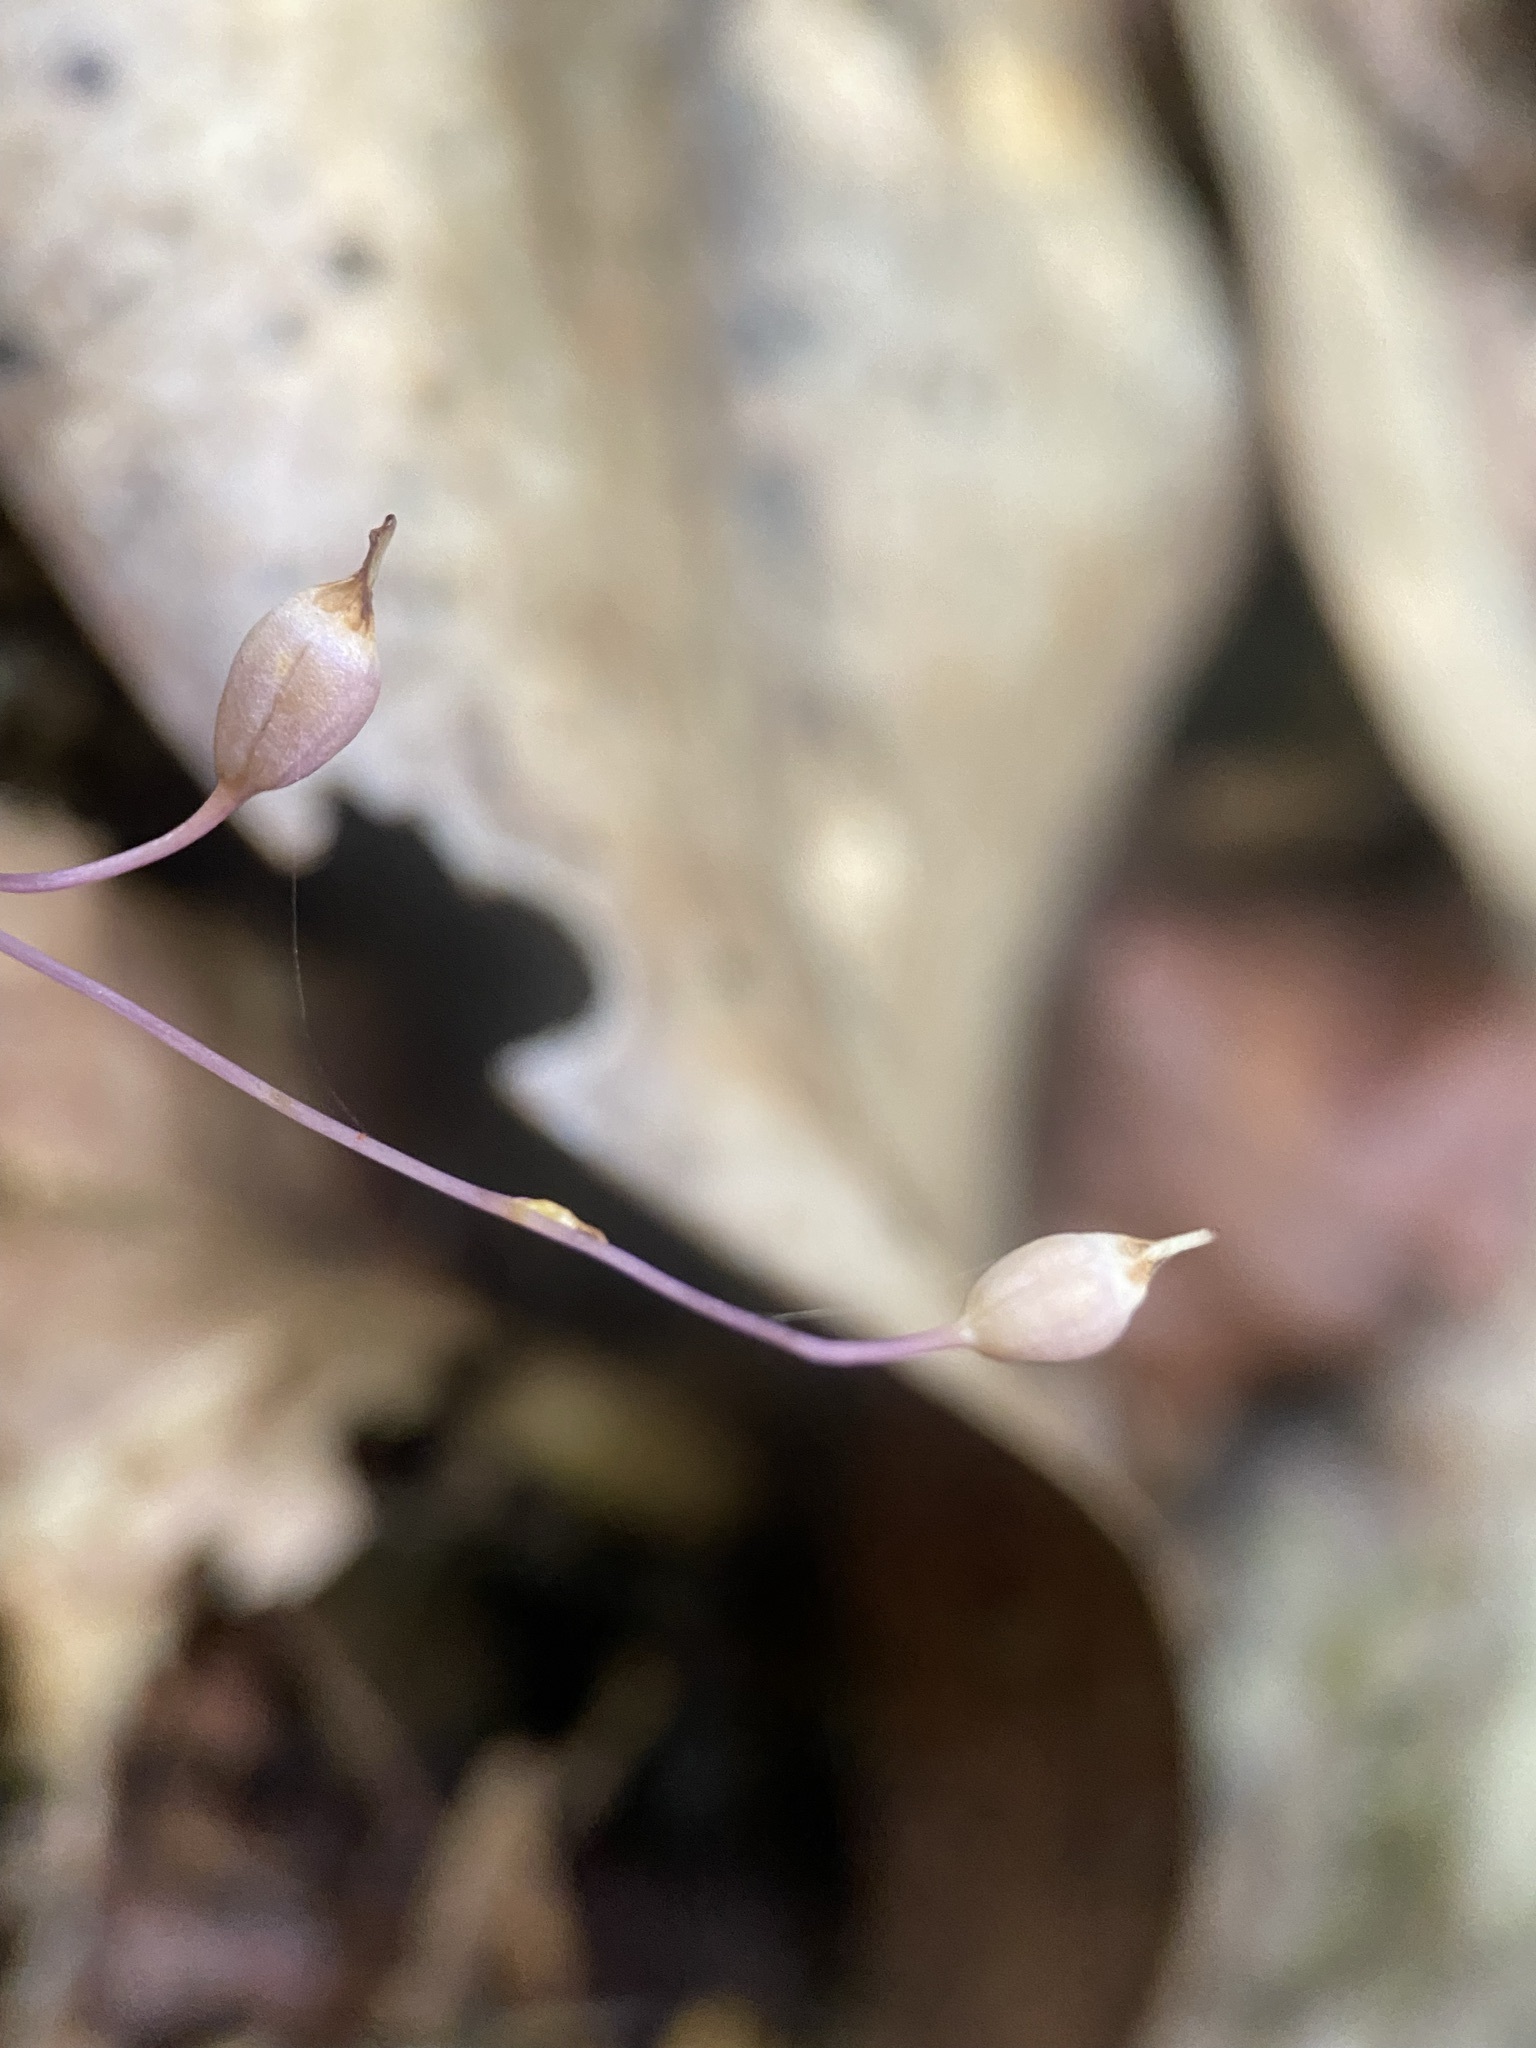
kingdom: Plantae
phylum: Tracheophyta
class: Liliopsida
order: Dioscoreales
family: Burmanniaceae
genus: Apteria
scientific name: Apteria aphylla
